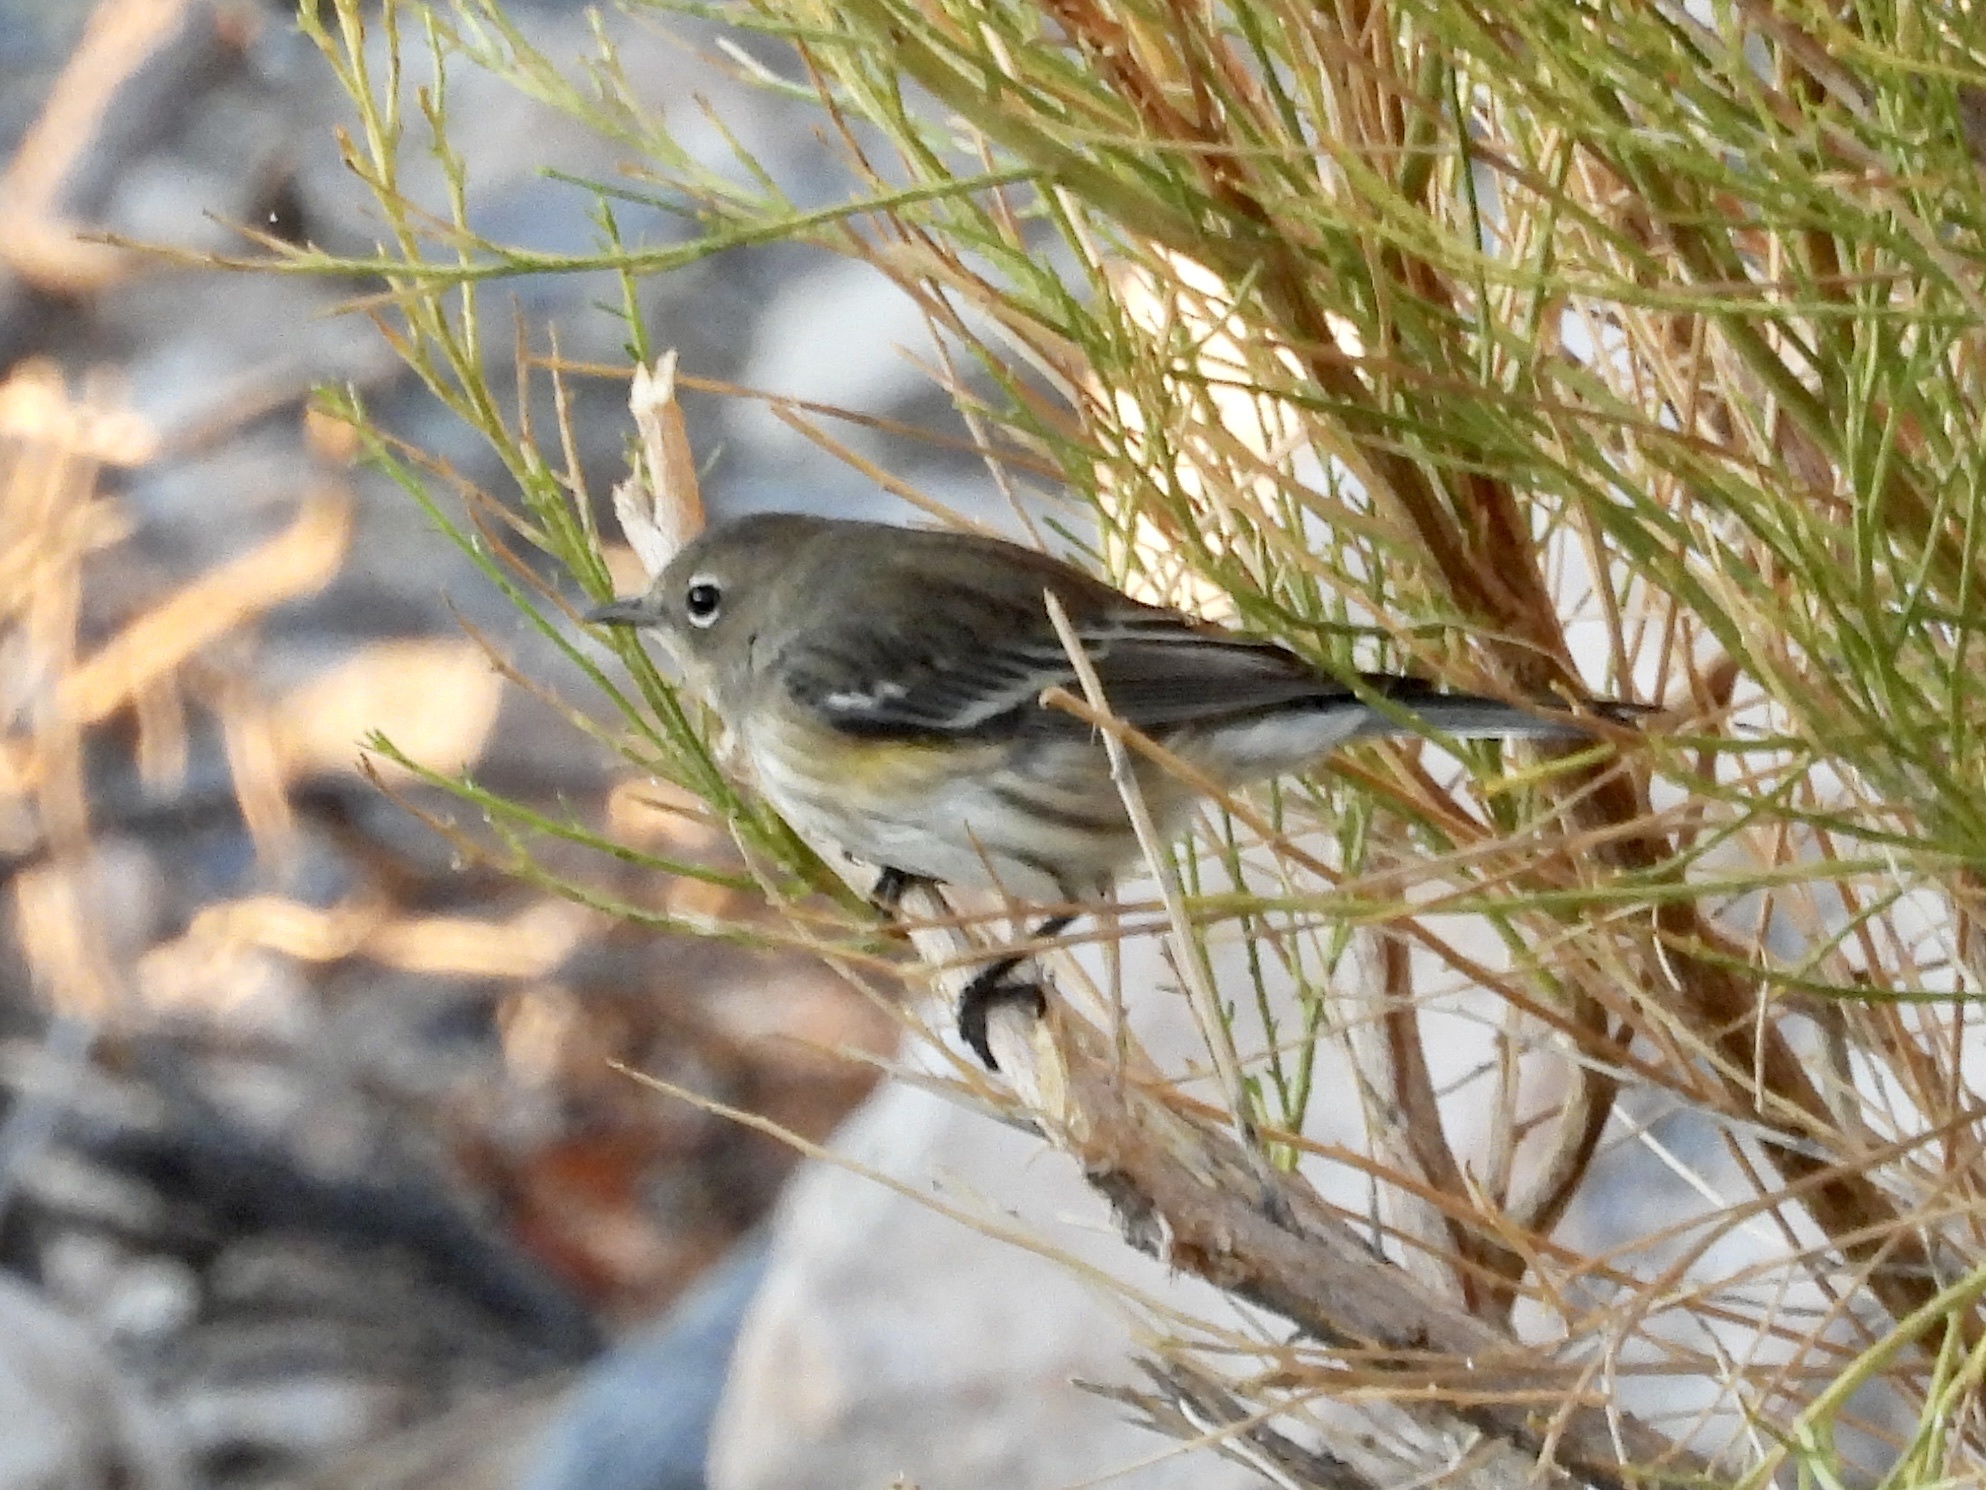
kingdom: Animalia
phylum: Chordata
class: Aves
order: Passeriformes
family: Parulidae
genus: Setophaga
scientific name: Setophaga coronata
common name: Myrtle warbler
